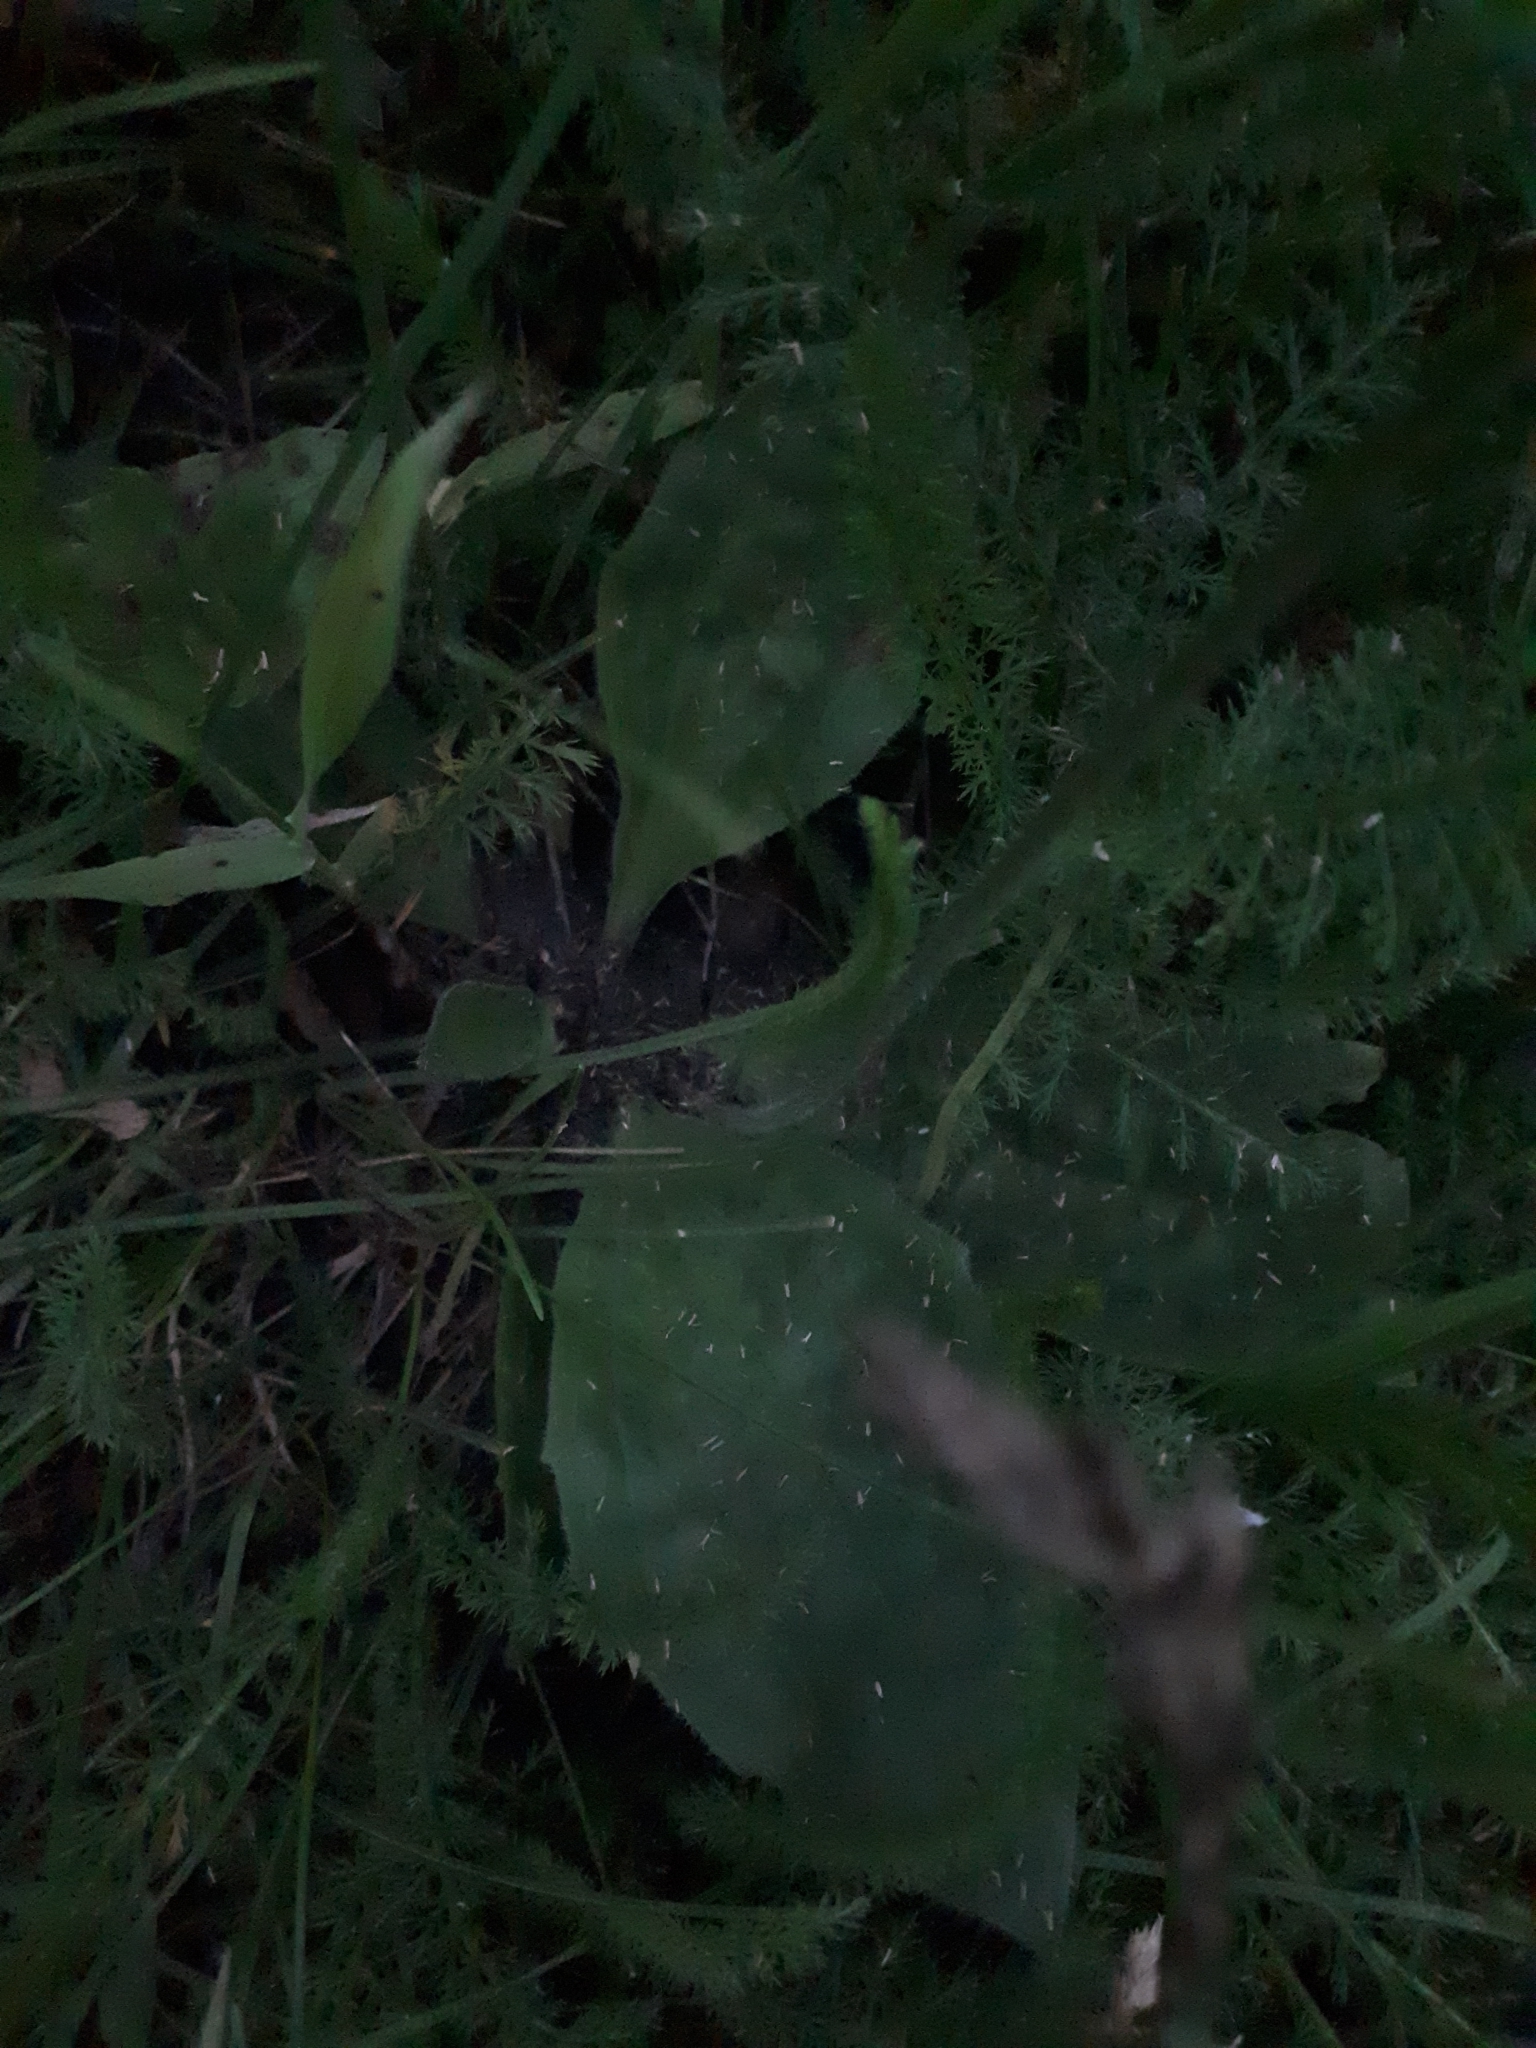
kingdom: Plantae
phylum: Tracheophyta
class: Magnoliopsida
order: Lamiales
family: Plantaginaceae
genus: Plantago
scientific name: Plantago media
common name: Hoary plantain
